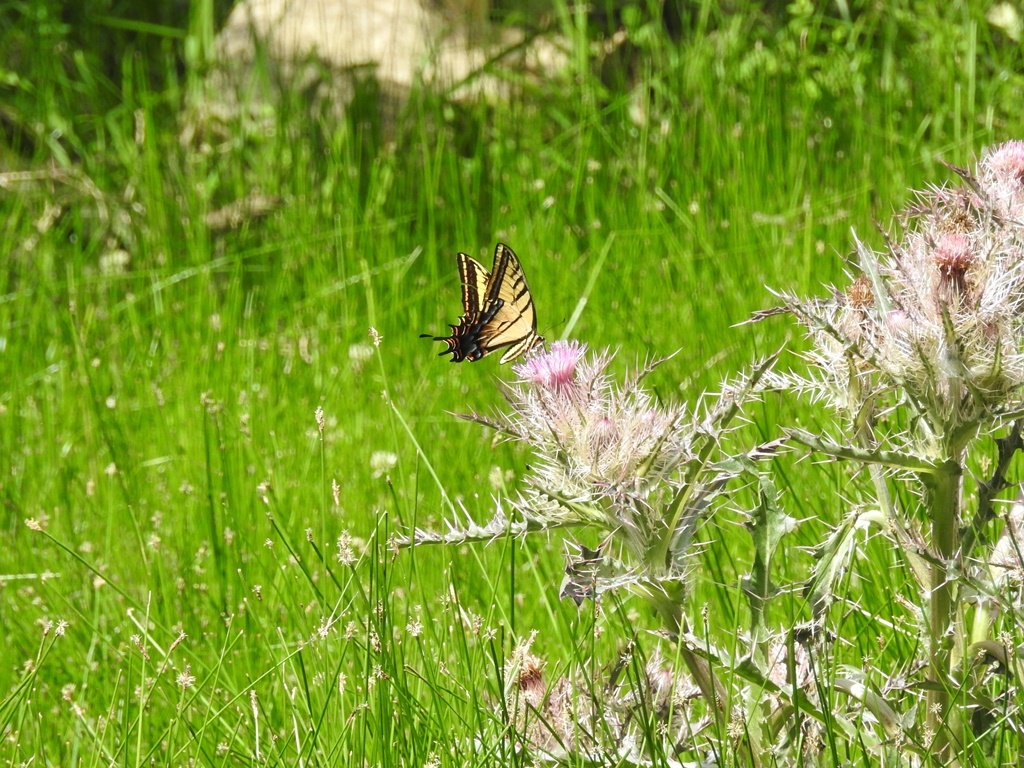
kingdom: Animalia
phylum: Arthropoda
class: Insecta
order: Lepidoptera
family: Papilionidae
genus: Papilio
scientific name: Papilio multicaudata
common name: Two-tailed tiger swallowtail
